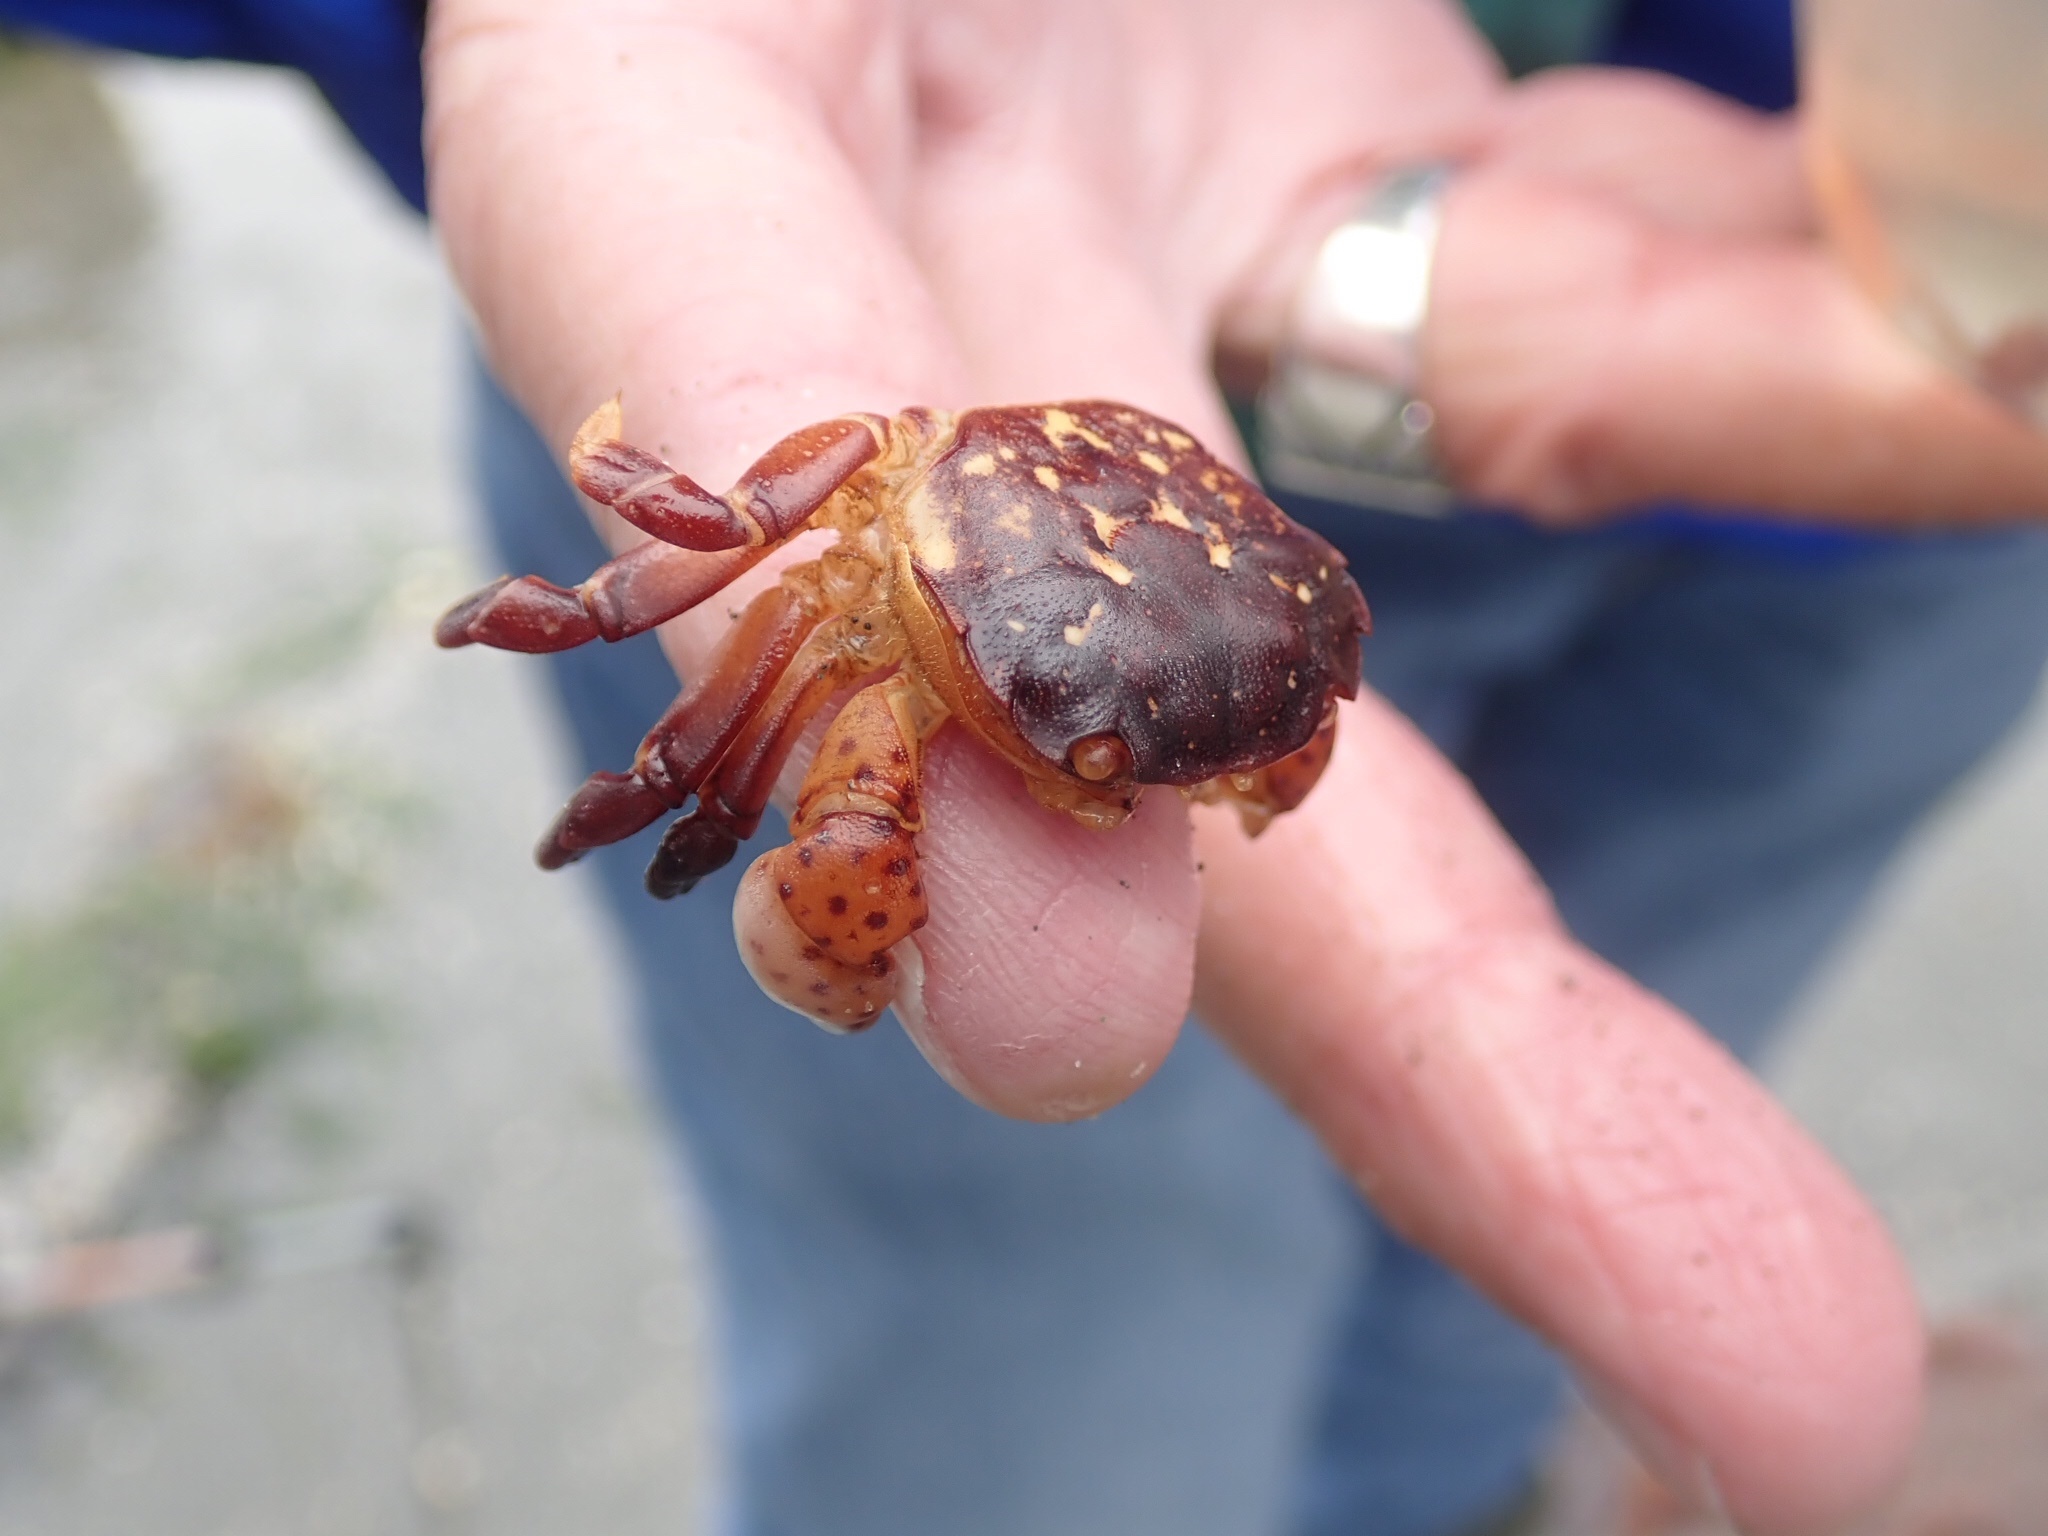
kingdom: Animalia
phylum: Arthropoda
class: Malacostraca
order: Decapoda
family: Varunidae
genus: Hemigrapsus
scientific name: Hemigrapsus nudus
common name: Purple shore crab
